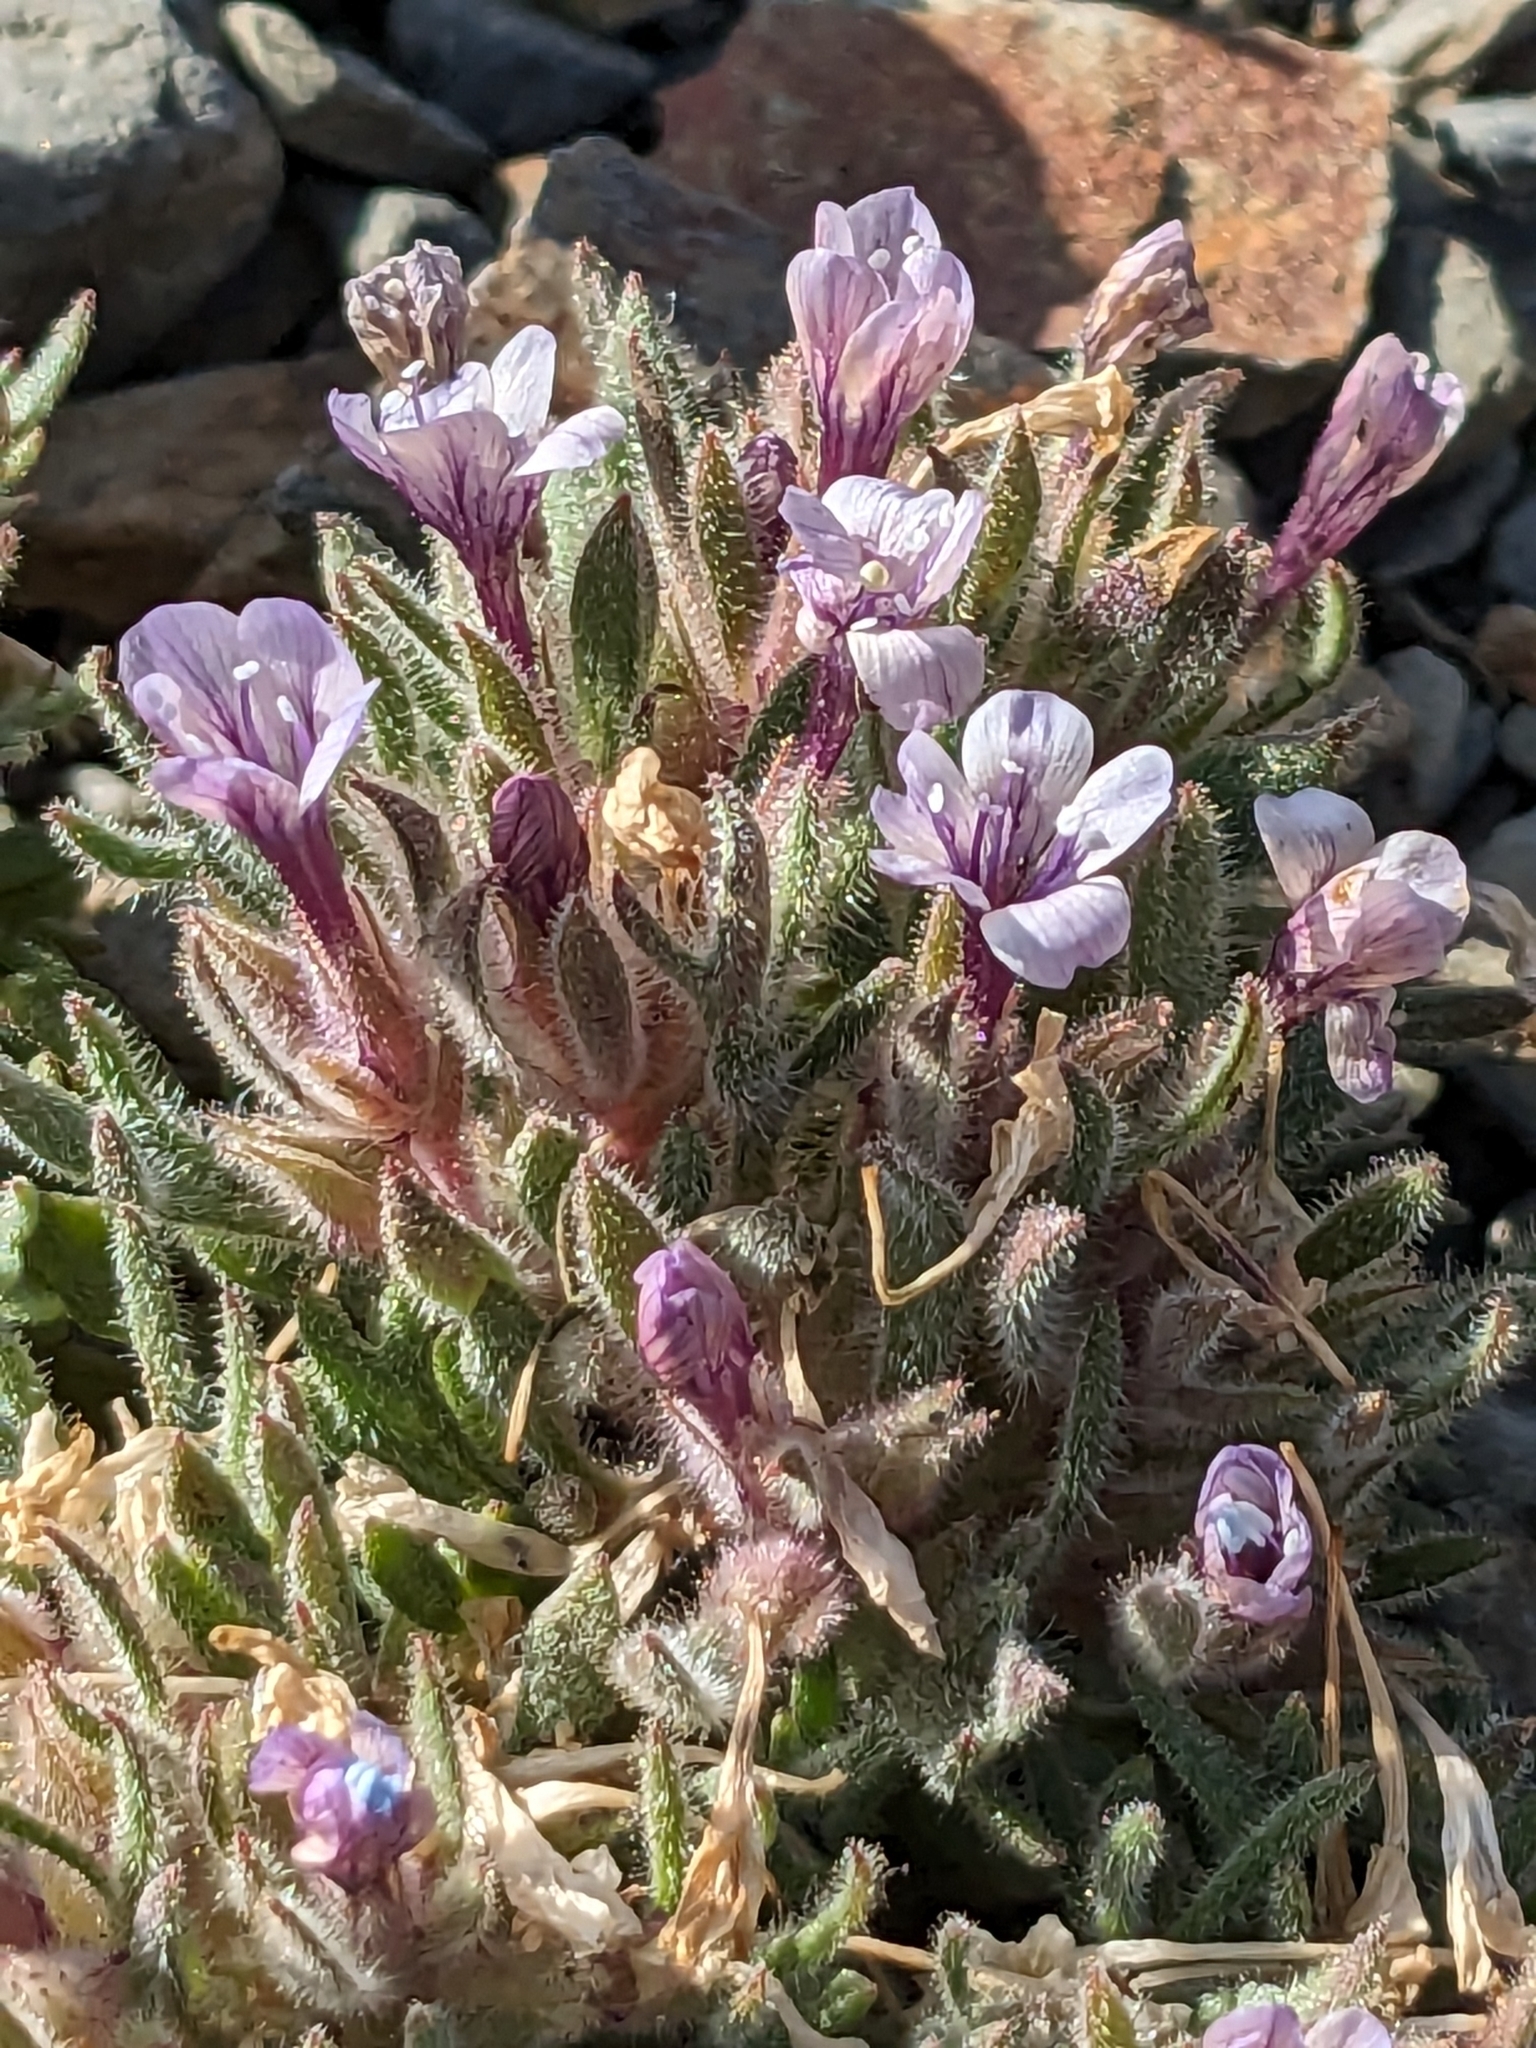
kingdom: Plantae
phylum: Tracheophyta
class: Magnoliopsida
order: Ericales
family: Polemoniaceae
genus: Collomia
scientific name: Collomia larsenii
